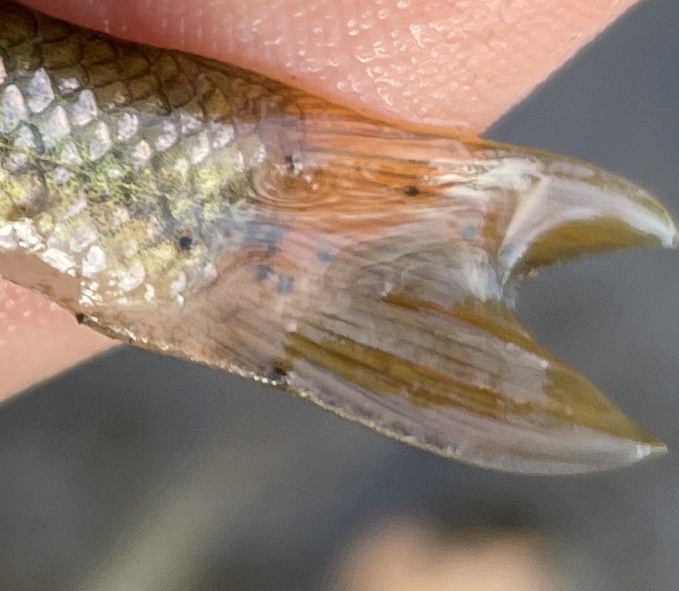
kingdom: Animalia
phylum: Platyhelminthes
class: Trematoda
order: Diplostomida
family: Diplostomidae
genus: Neascus
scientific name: Neascus
